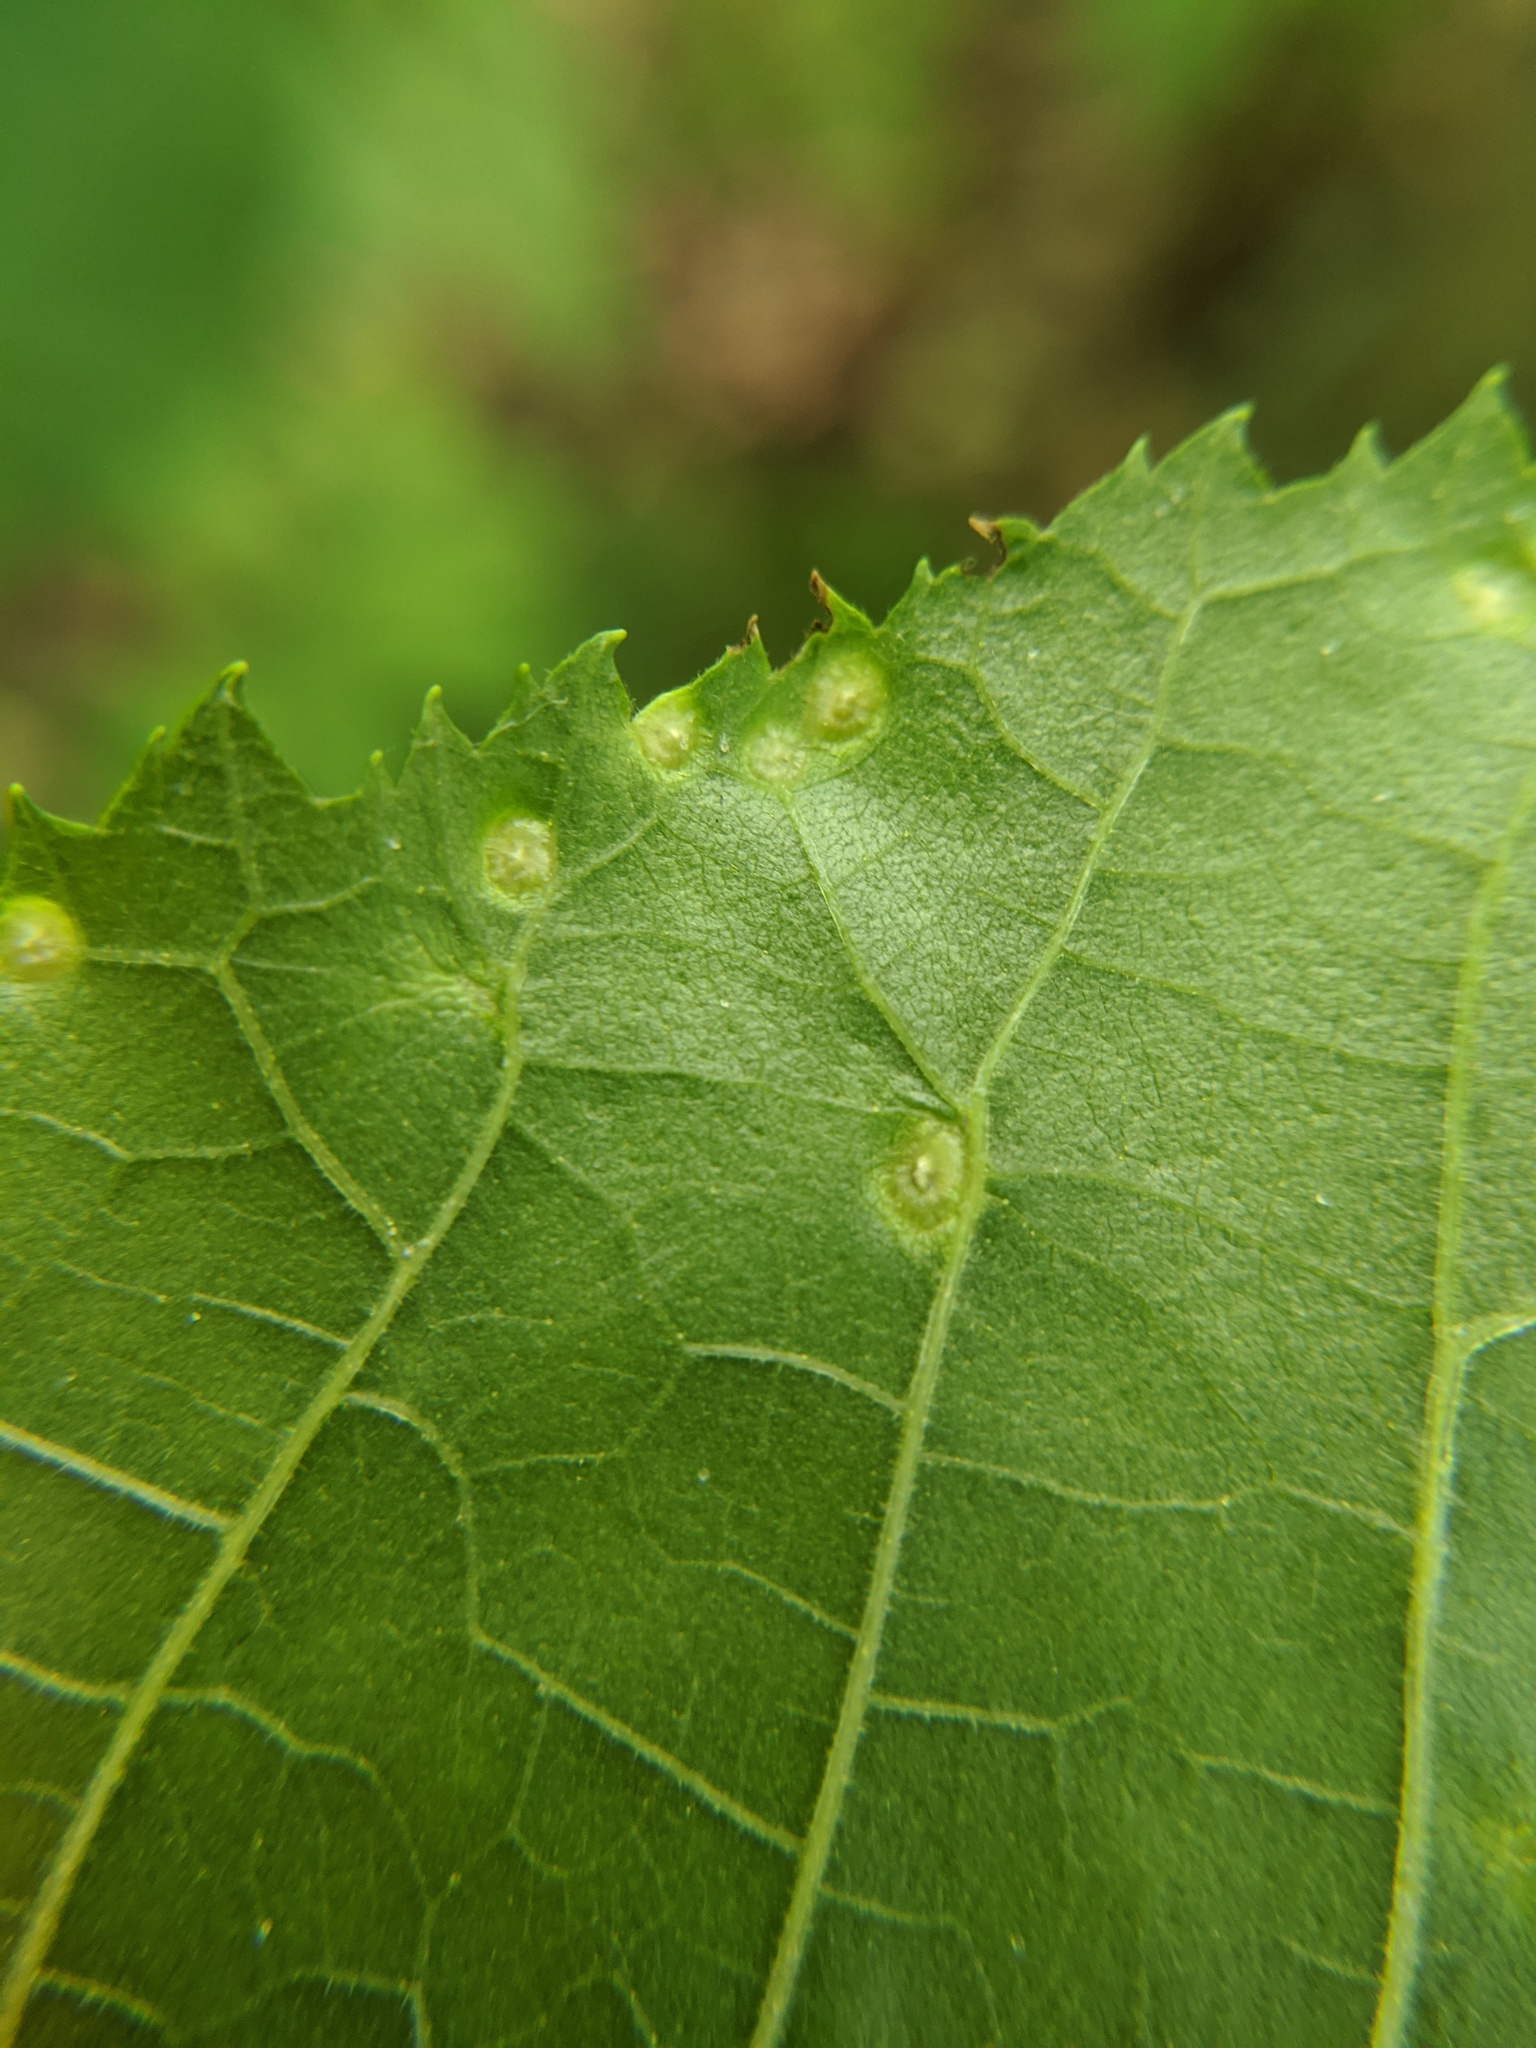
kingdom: Animalia
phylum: Arthropoda
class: Insecta
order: Hemiptera
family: Phylloxeridae
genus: Phylloxera
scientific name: Phylloxera caryae-semen
